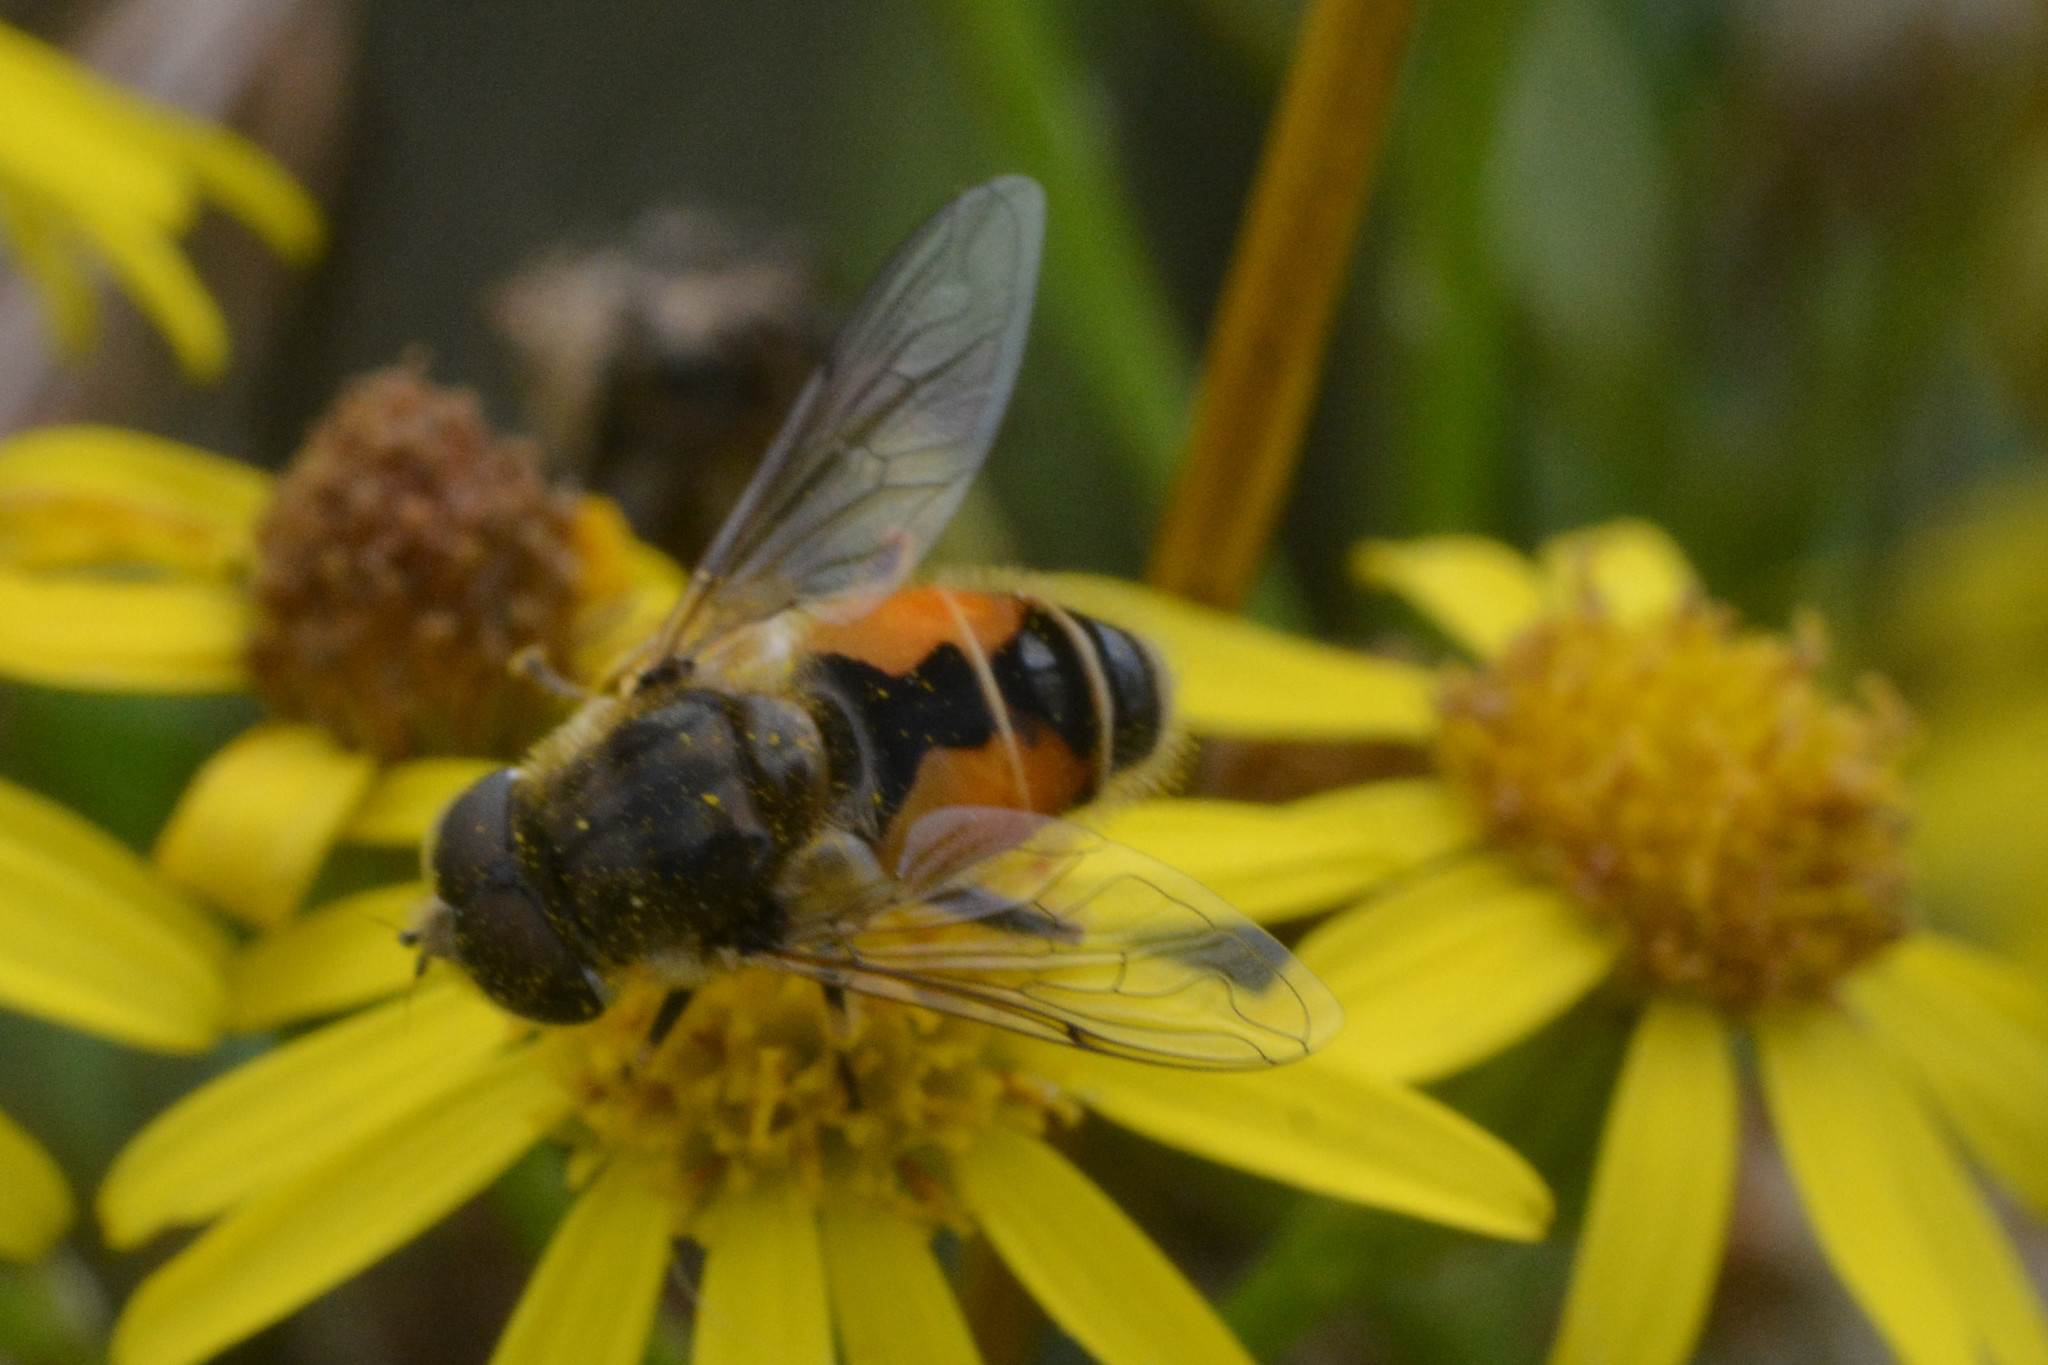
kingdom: Animalia
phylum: Arthropoda
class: Insecta
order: Diptera
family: Syrphidae
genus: Eristalis
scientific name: Eristalis arbustorum
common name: Hover fly
